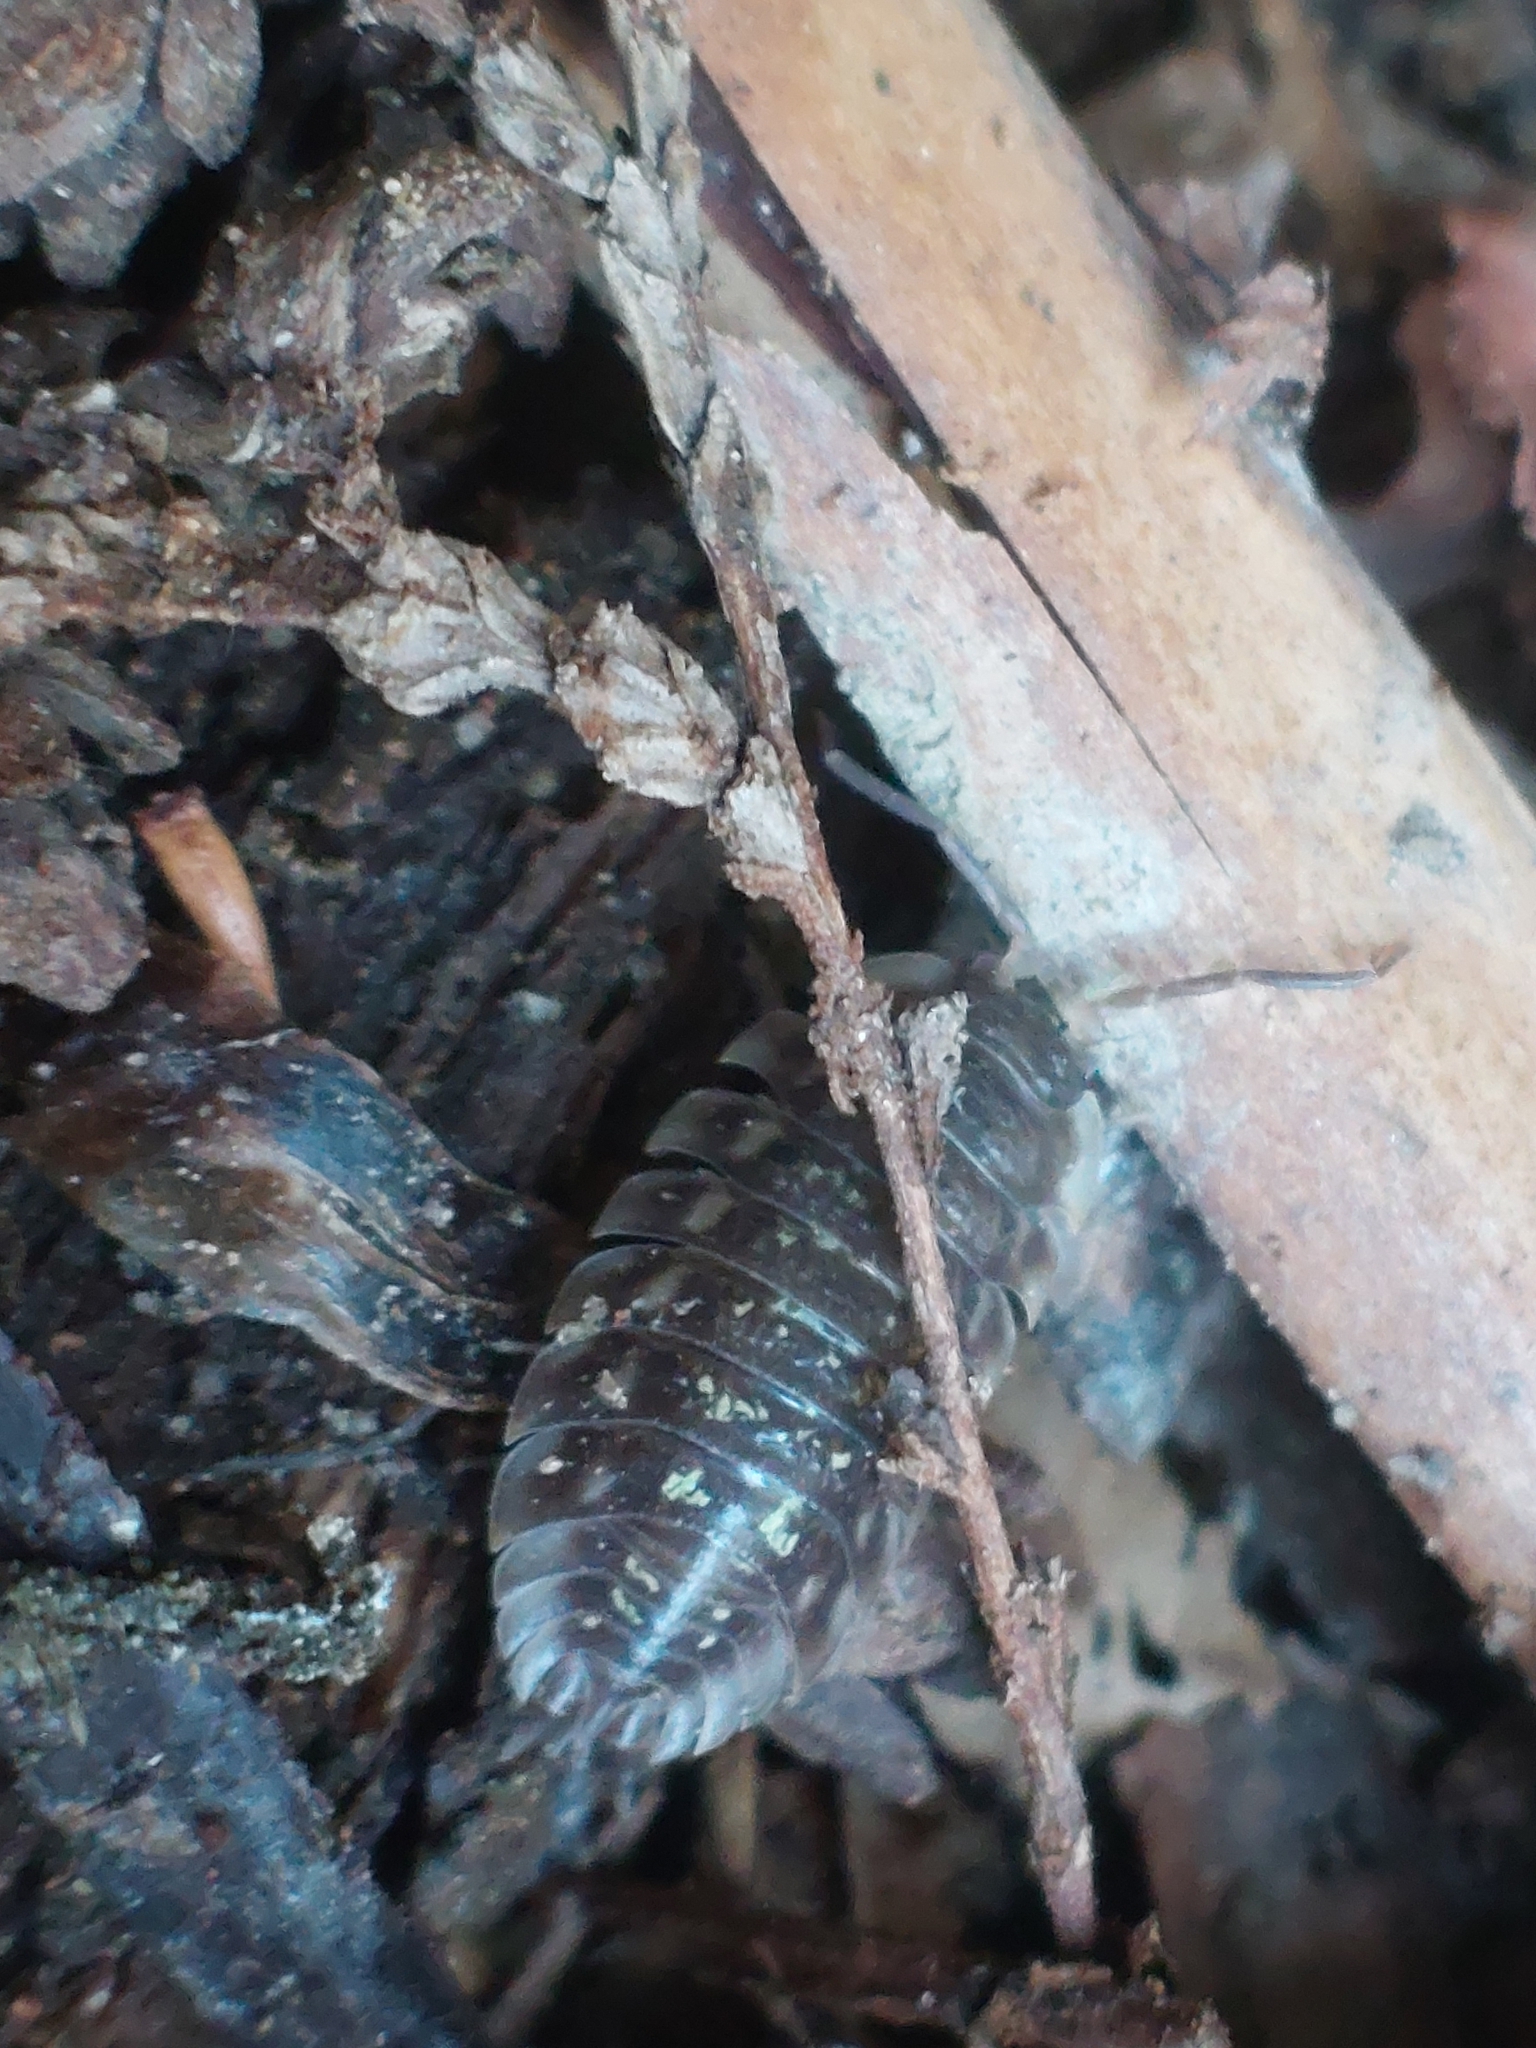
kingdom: Animalia
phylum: Arthropoda
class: Malacostraca
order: Isopoda
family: Oniscidae
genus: Oniscus
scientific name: Oniscus asellus
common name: Common shiny woodlouse
